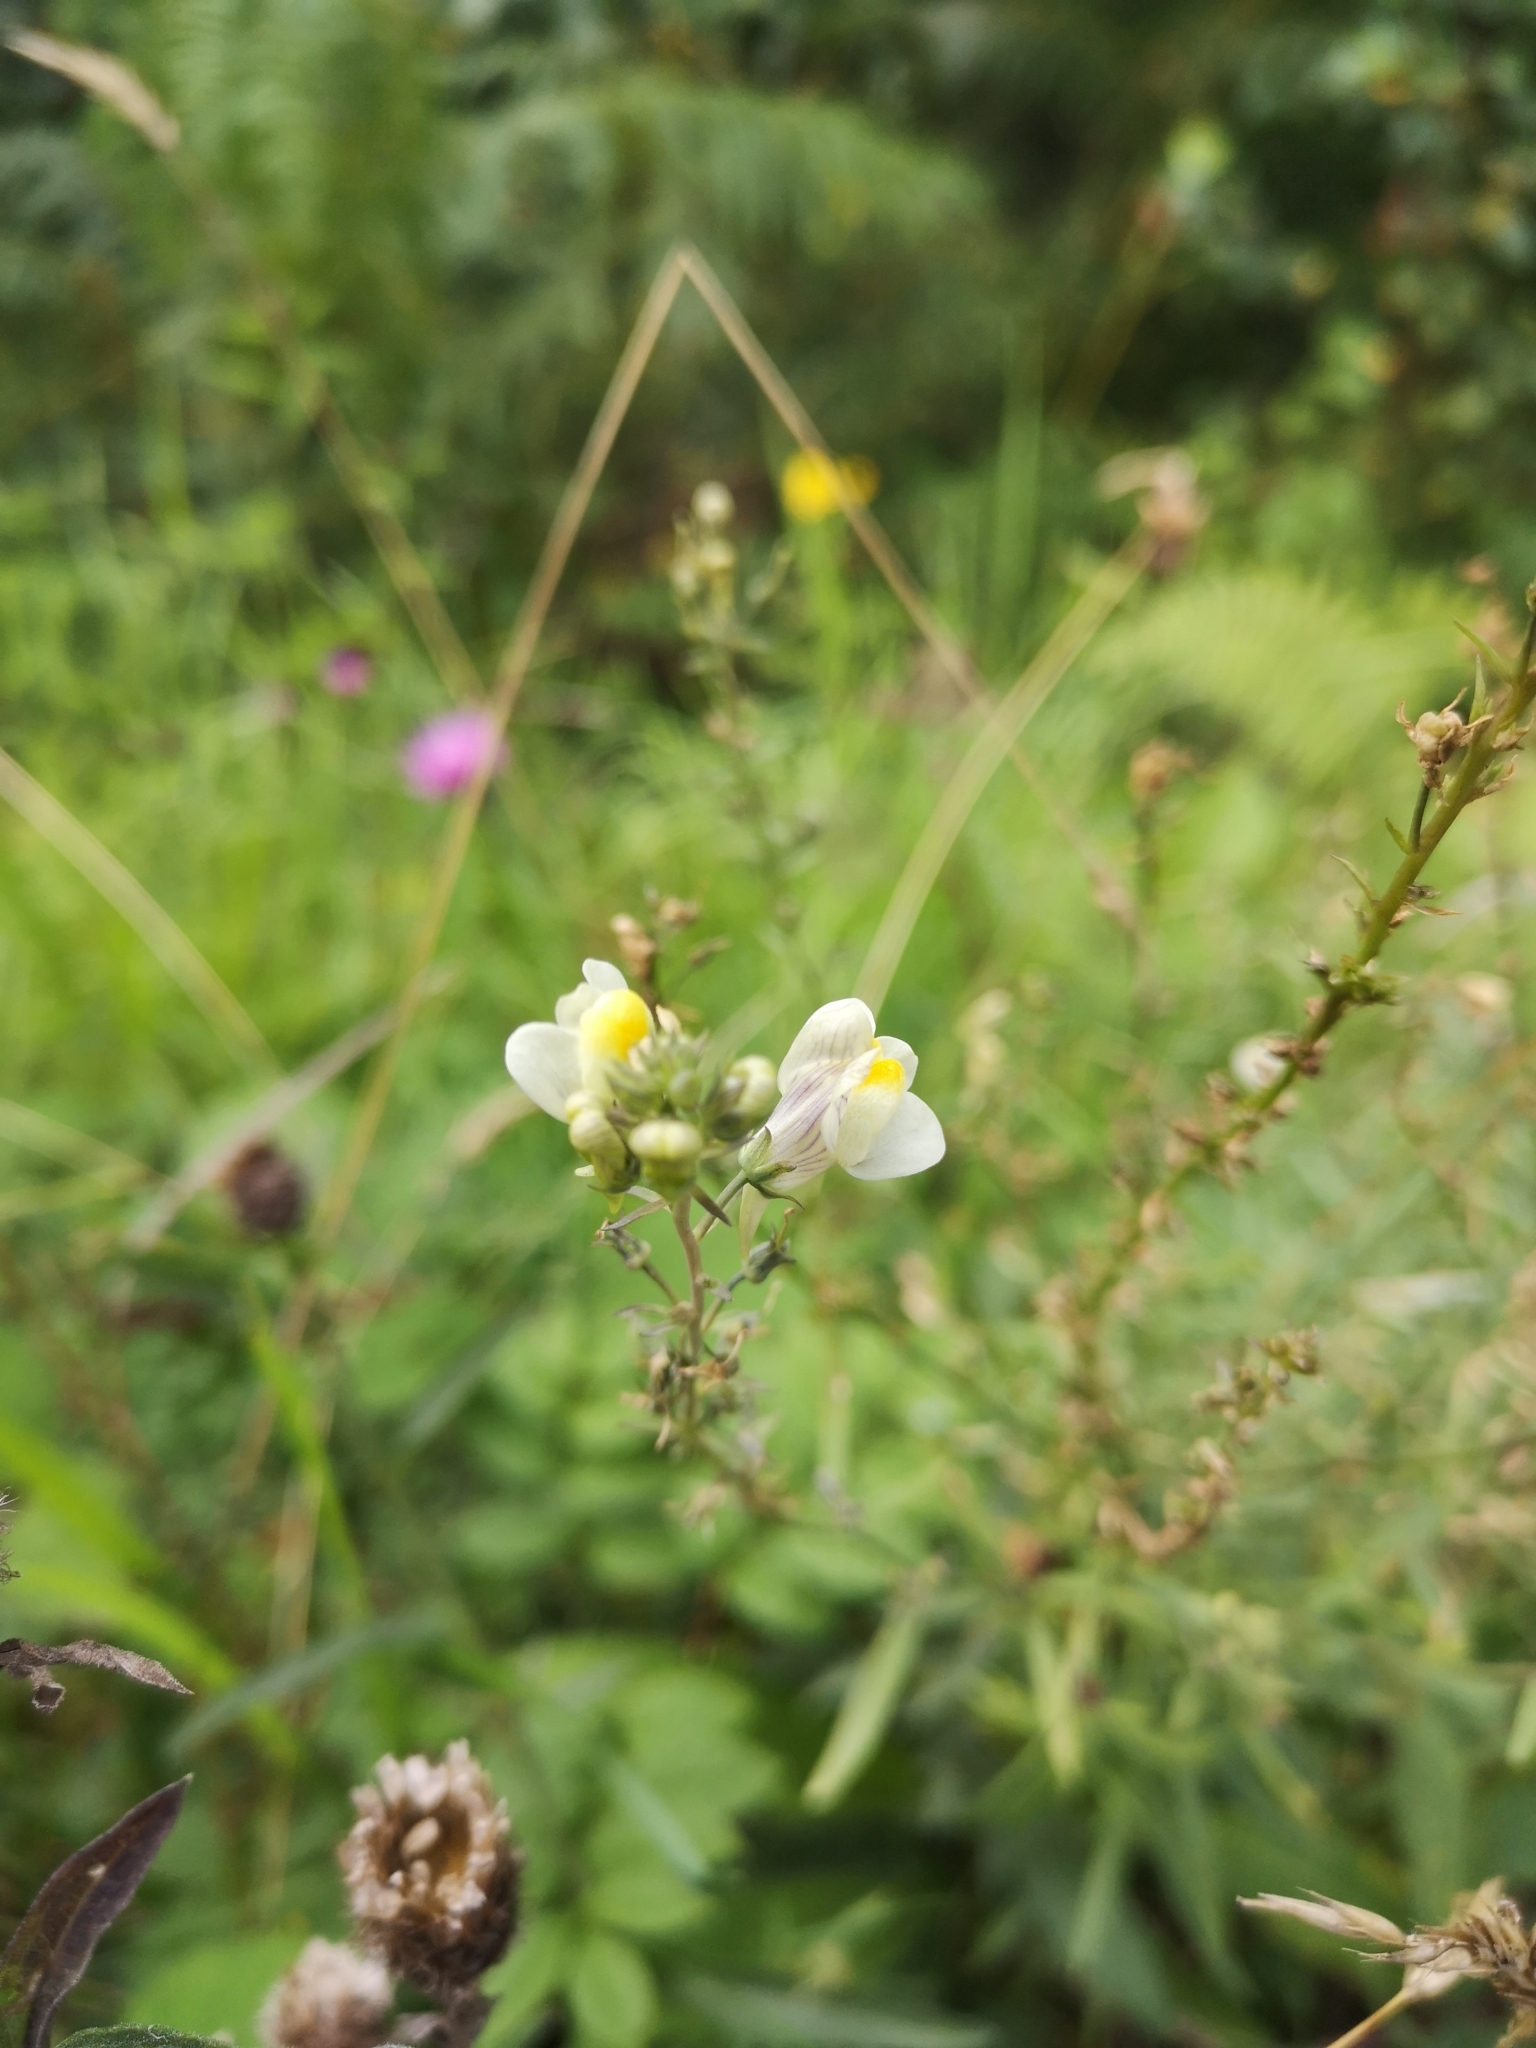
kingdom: Plantae
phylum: Tracheophyta
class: Magnoliopsida
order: Lamiales
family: Plantaginaceae
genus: Linaria
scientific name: Linaria repens
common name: Pale toadflax
